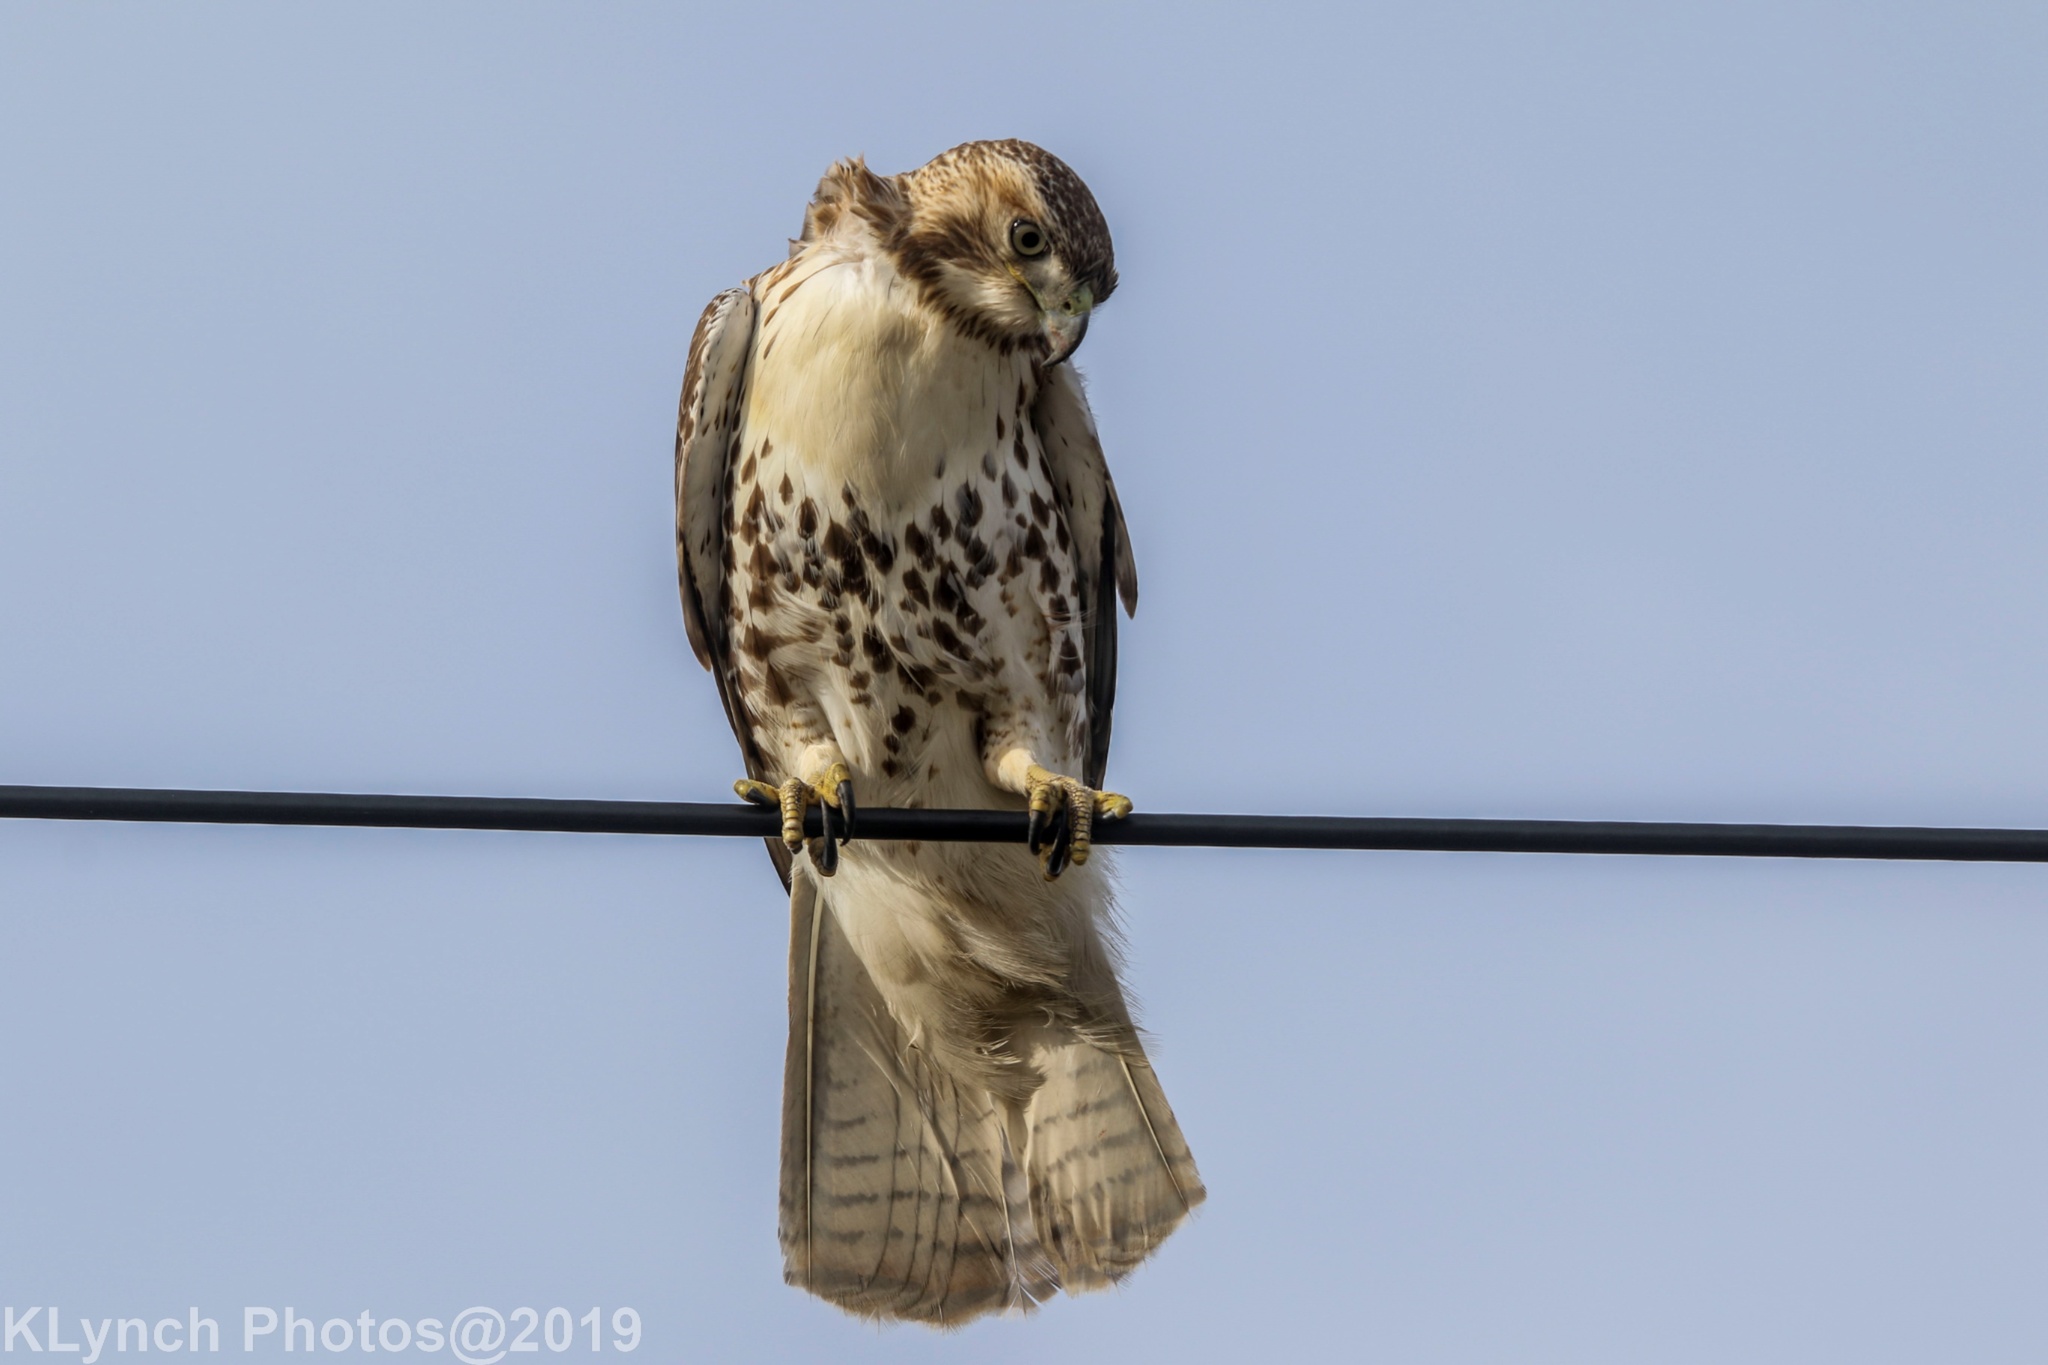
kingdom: Animalia
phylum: Chordata
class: Aves
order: Accipitriformes
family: Accipitridae
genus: Buteo
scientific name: Buteo jamaicensis
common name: Red-tailed hawk
